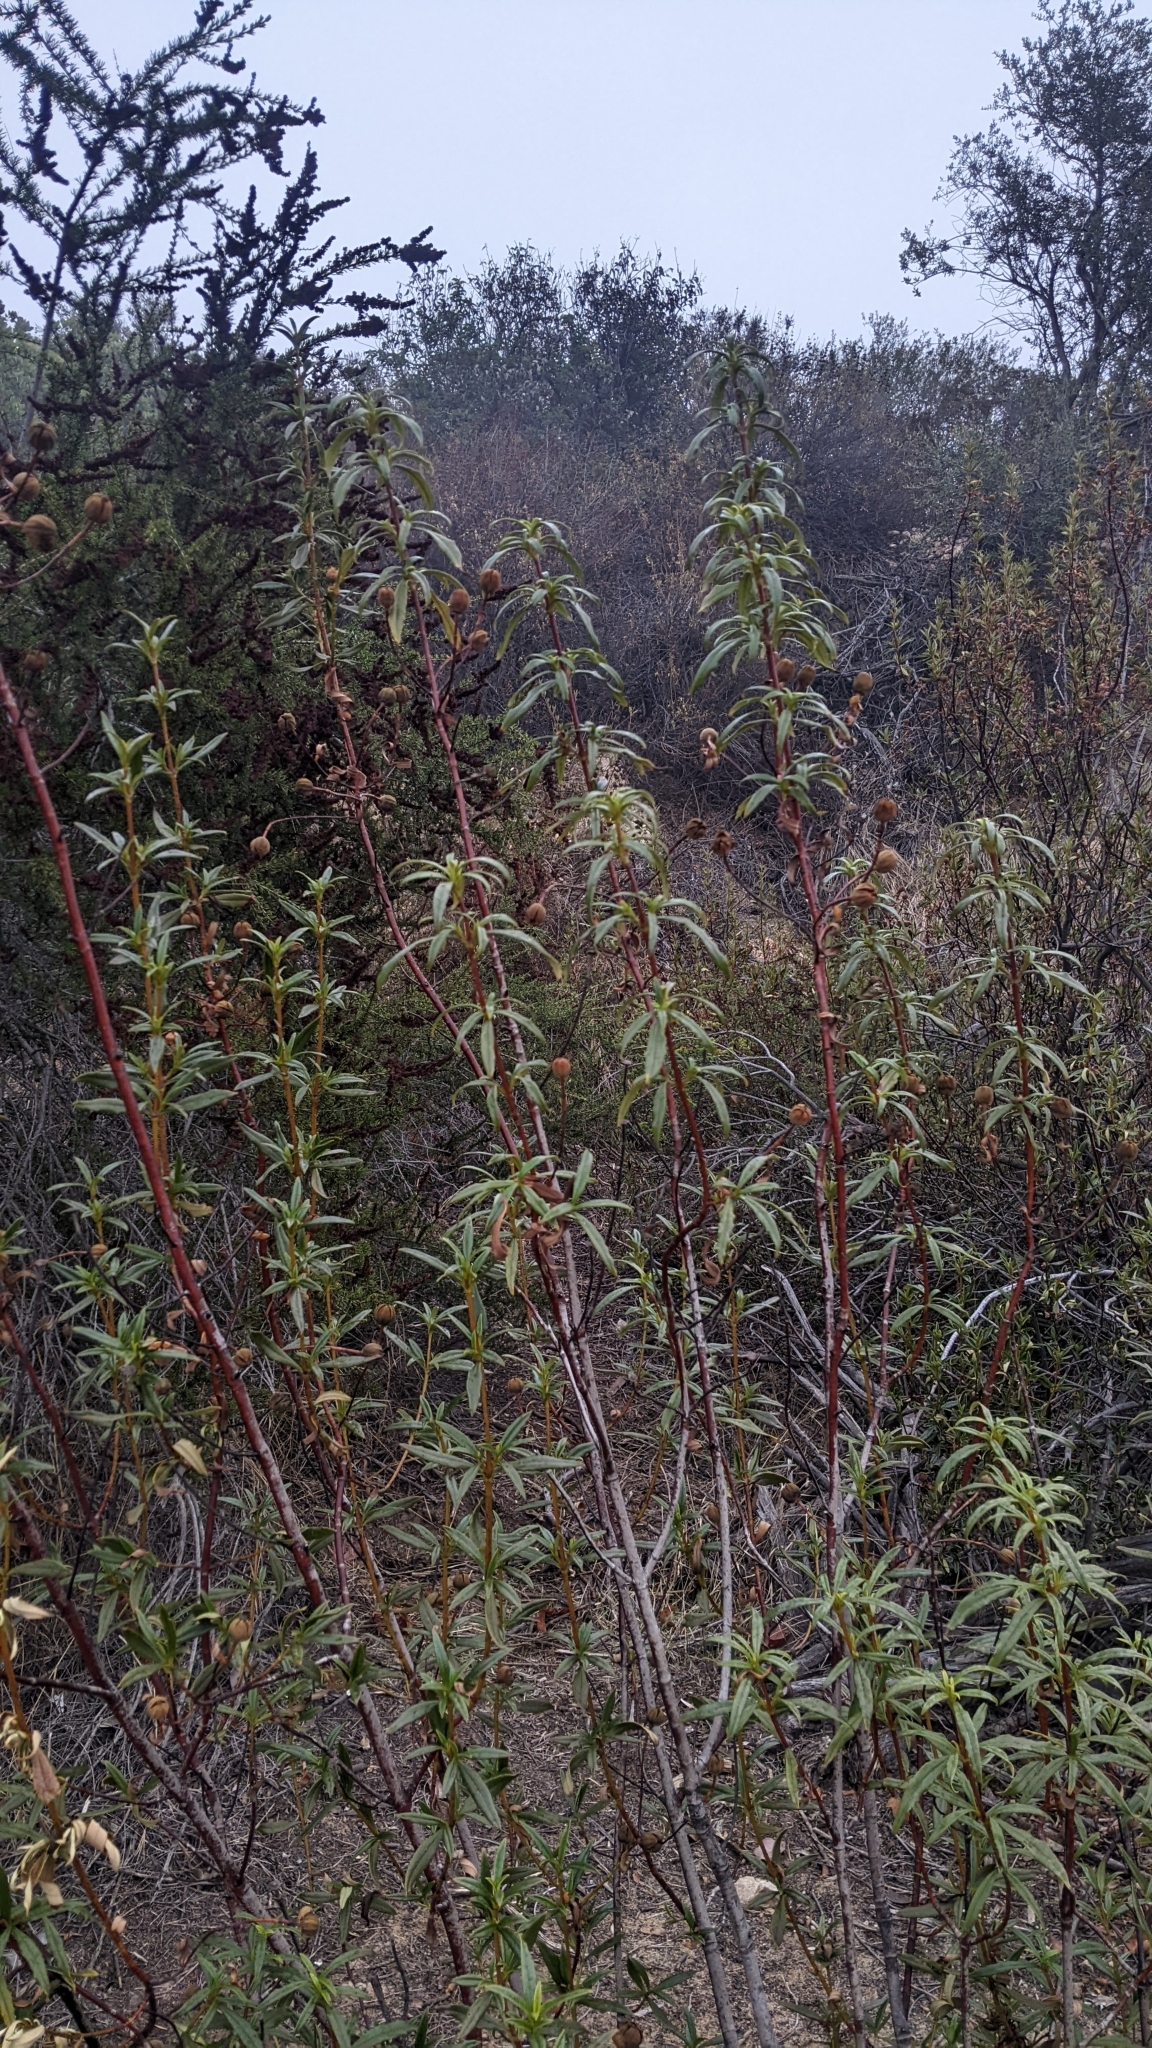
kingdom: Plantae
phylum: Tracheophyta
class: Magnoliopsida
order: Malvales
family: Cistaceae
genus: Cistus
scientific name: Cistus ladanifer
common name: Common gum cistus
